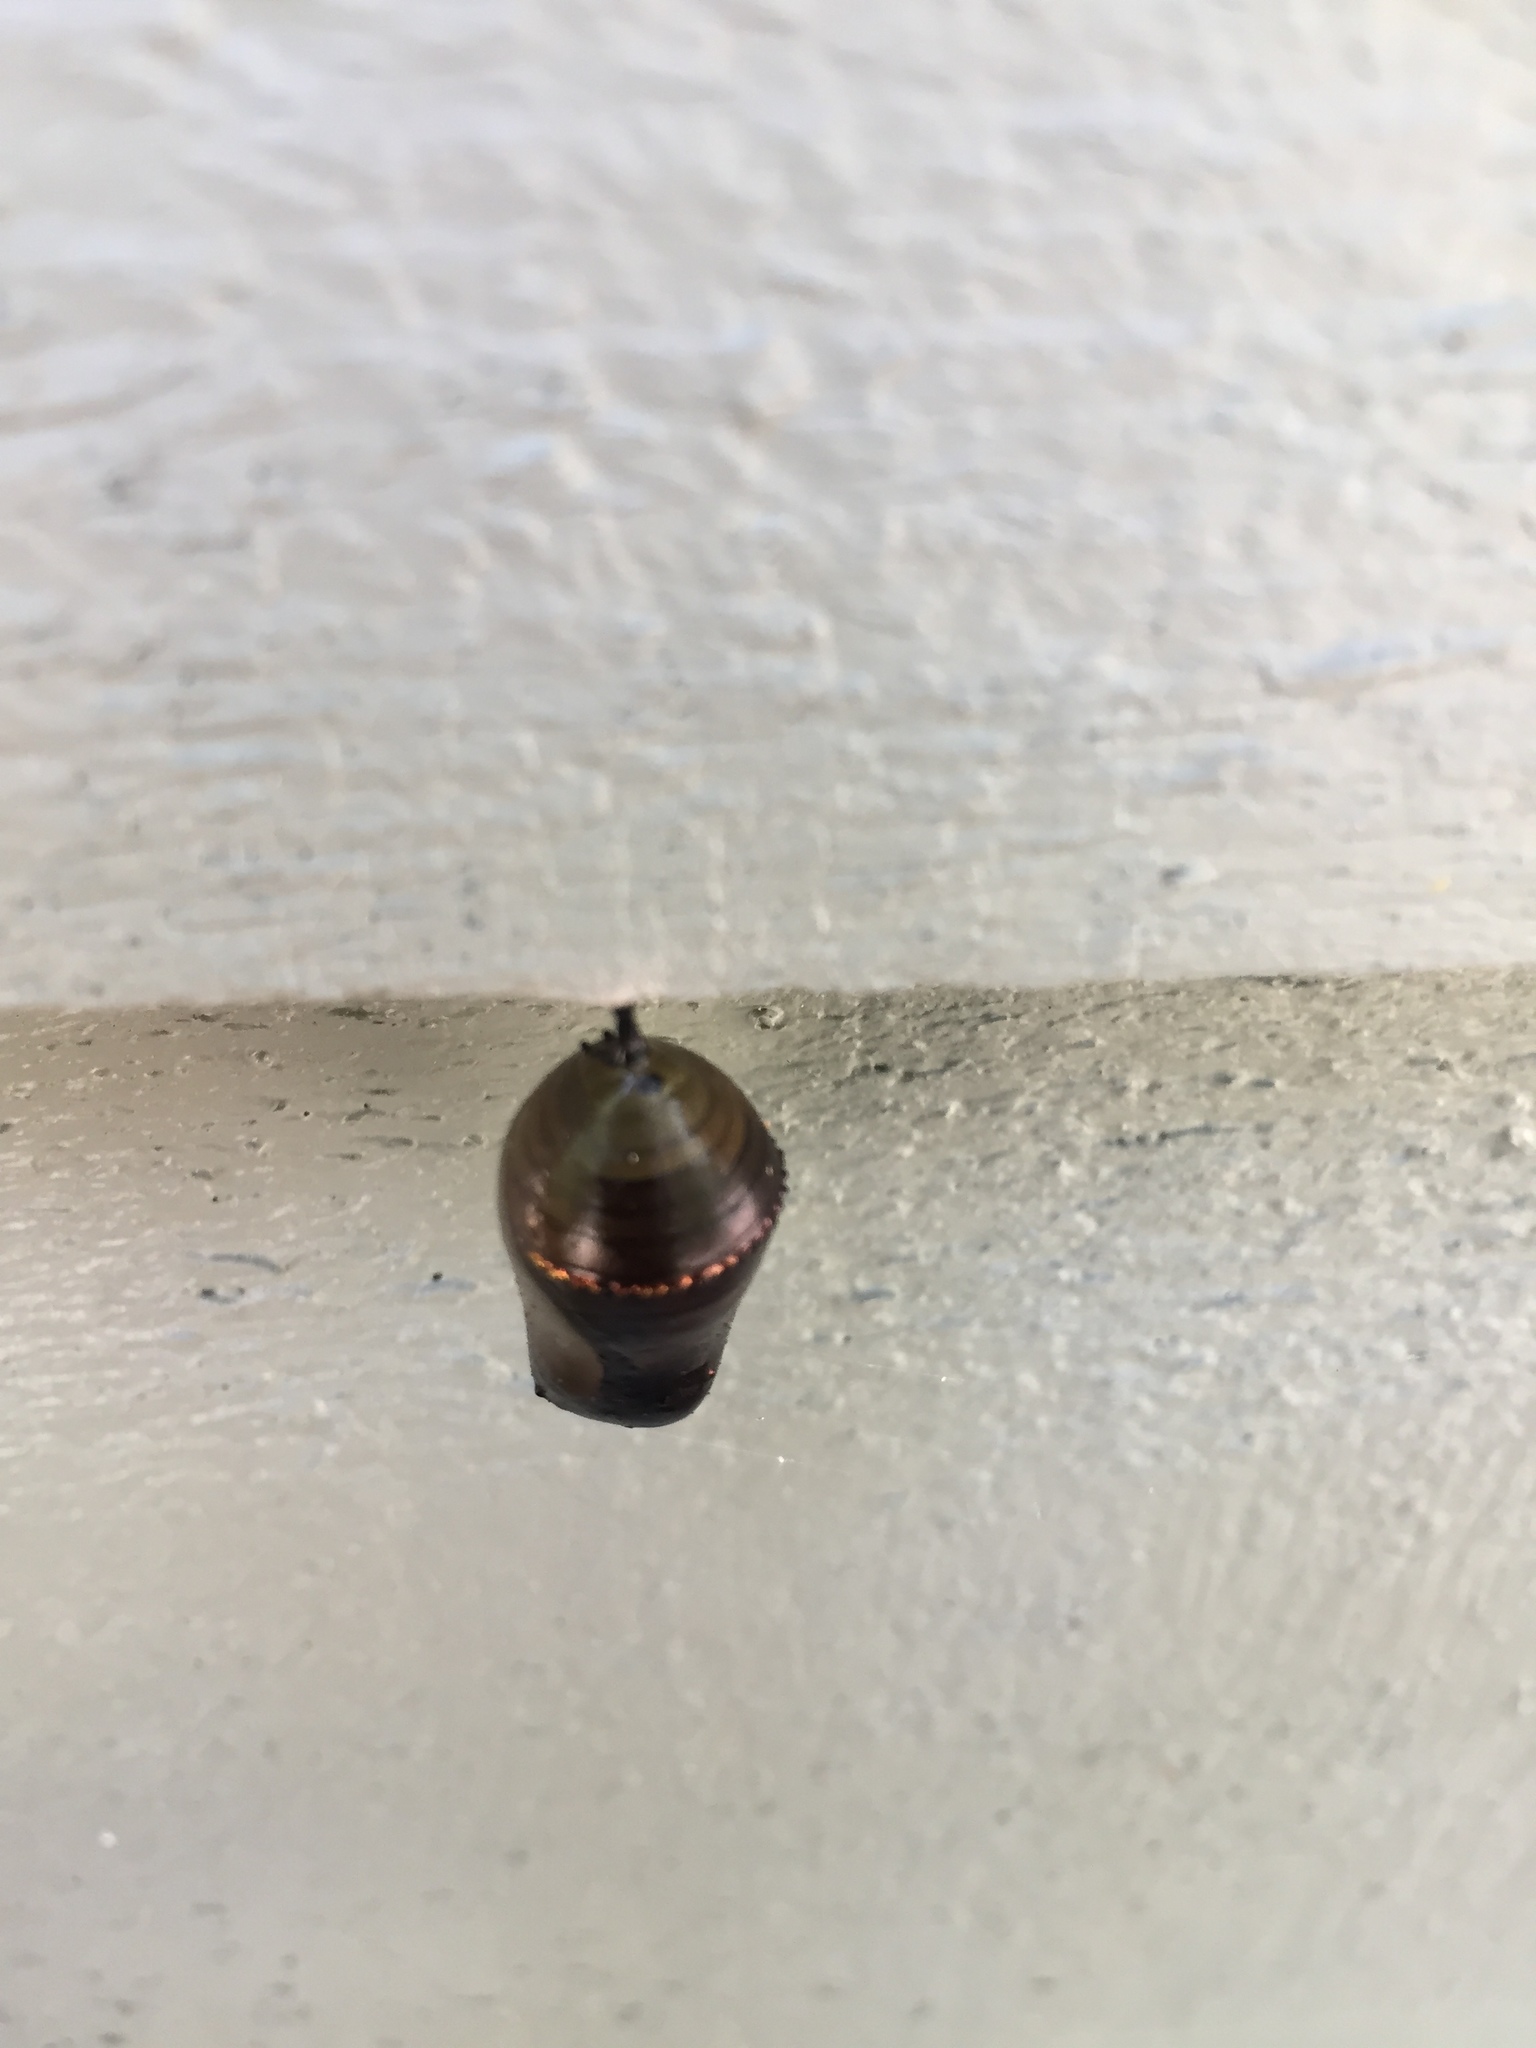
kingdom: Animalia
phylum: Arthropoda
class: Insecta
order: Lepidoptera
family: Nymphalidae
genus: Danaus
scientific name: Danaus plexippus
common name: Monarch
